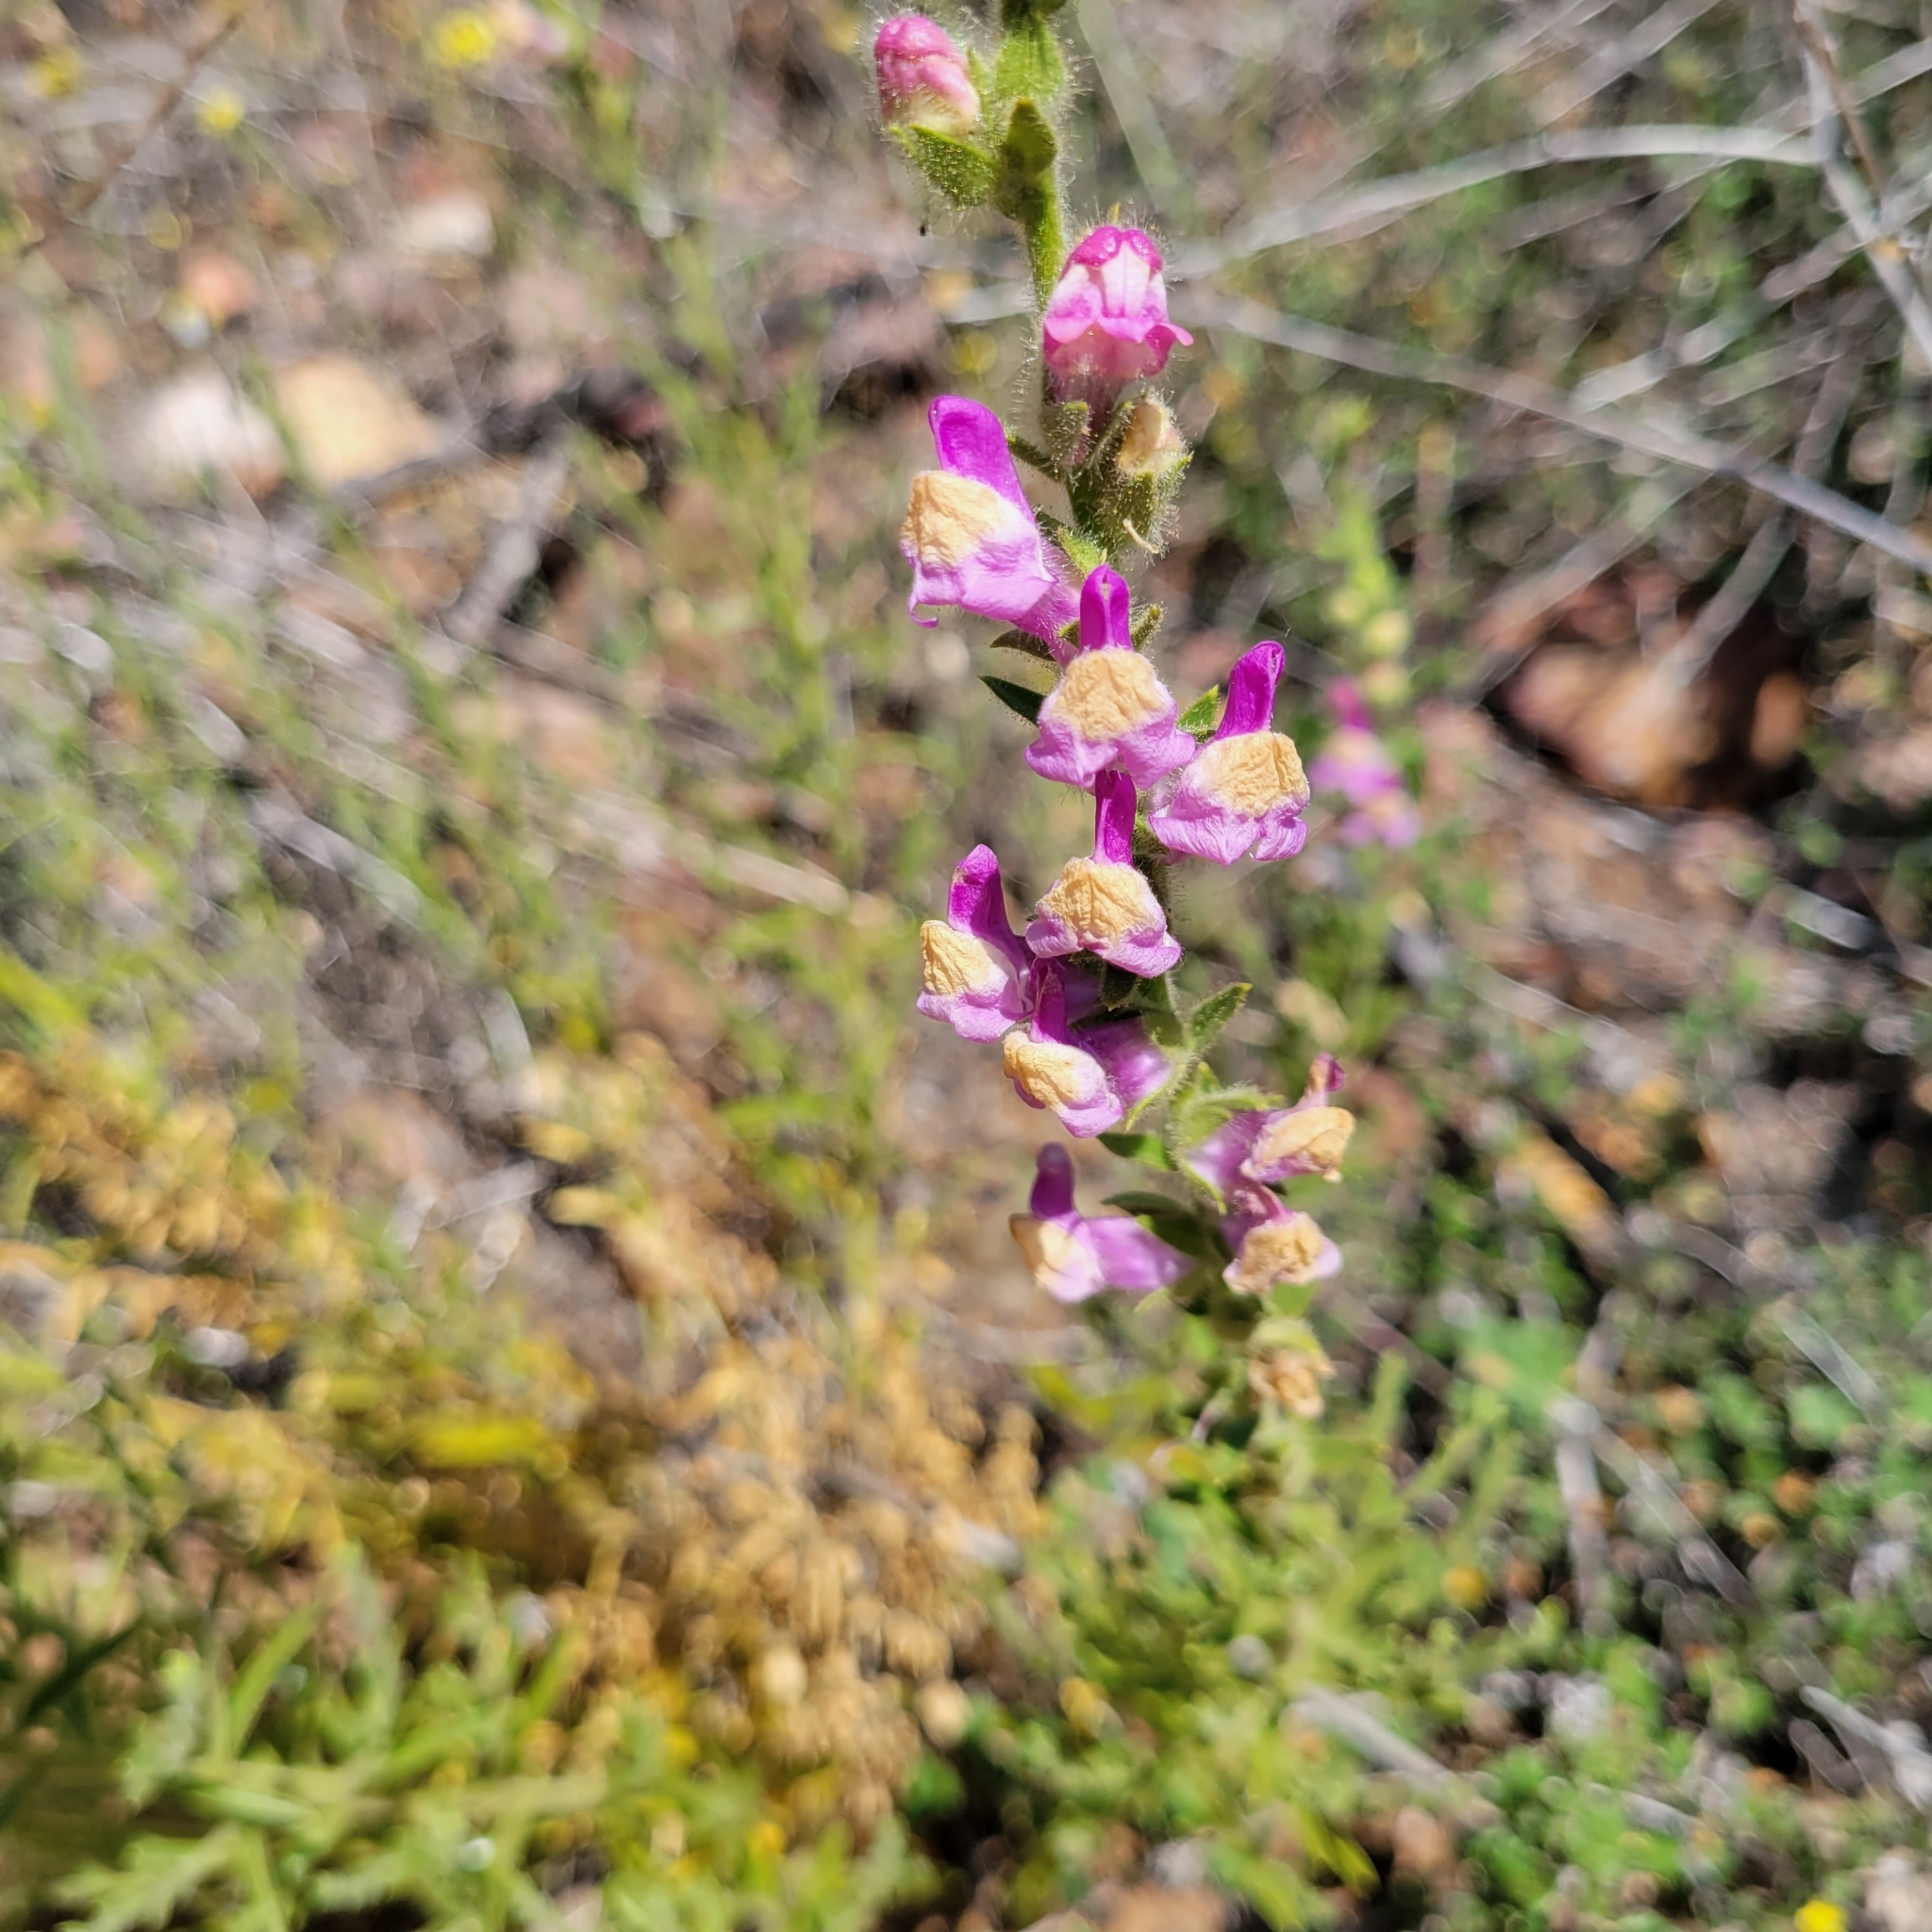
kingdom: Plantae
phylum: Tracheophyta
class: Magnoliopsida
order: Lamiales
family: Plantaginaceae
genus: Sairocarpus
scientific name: Sairocarpus multiflorus
